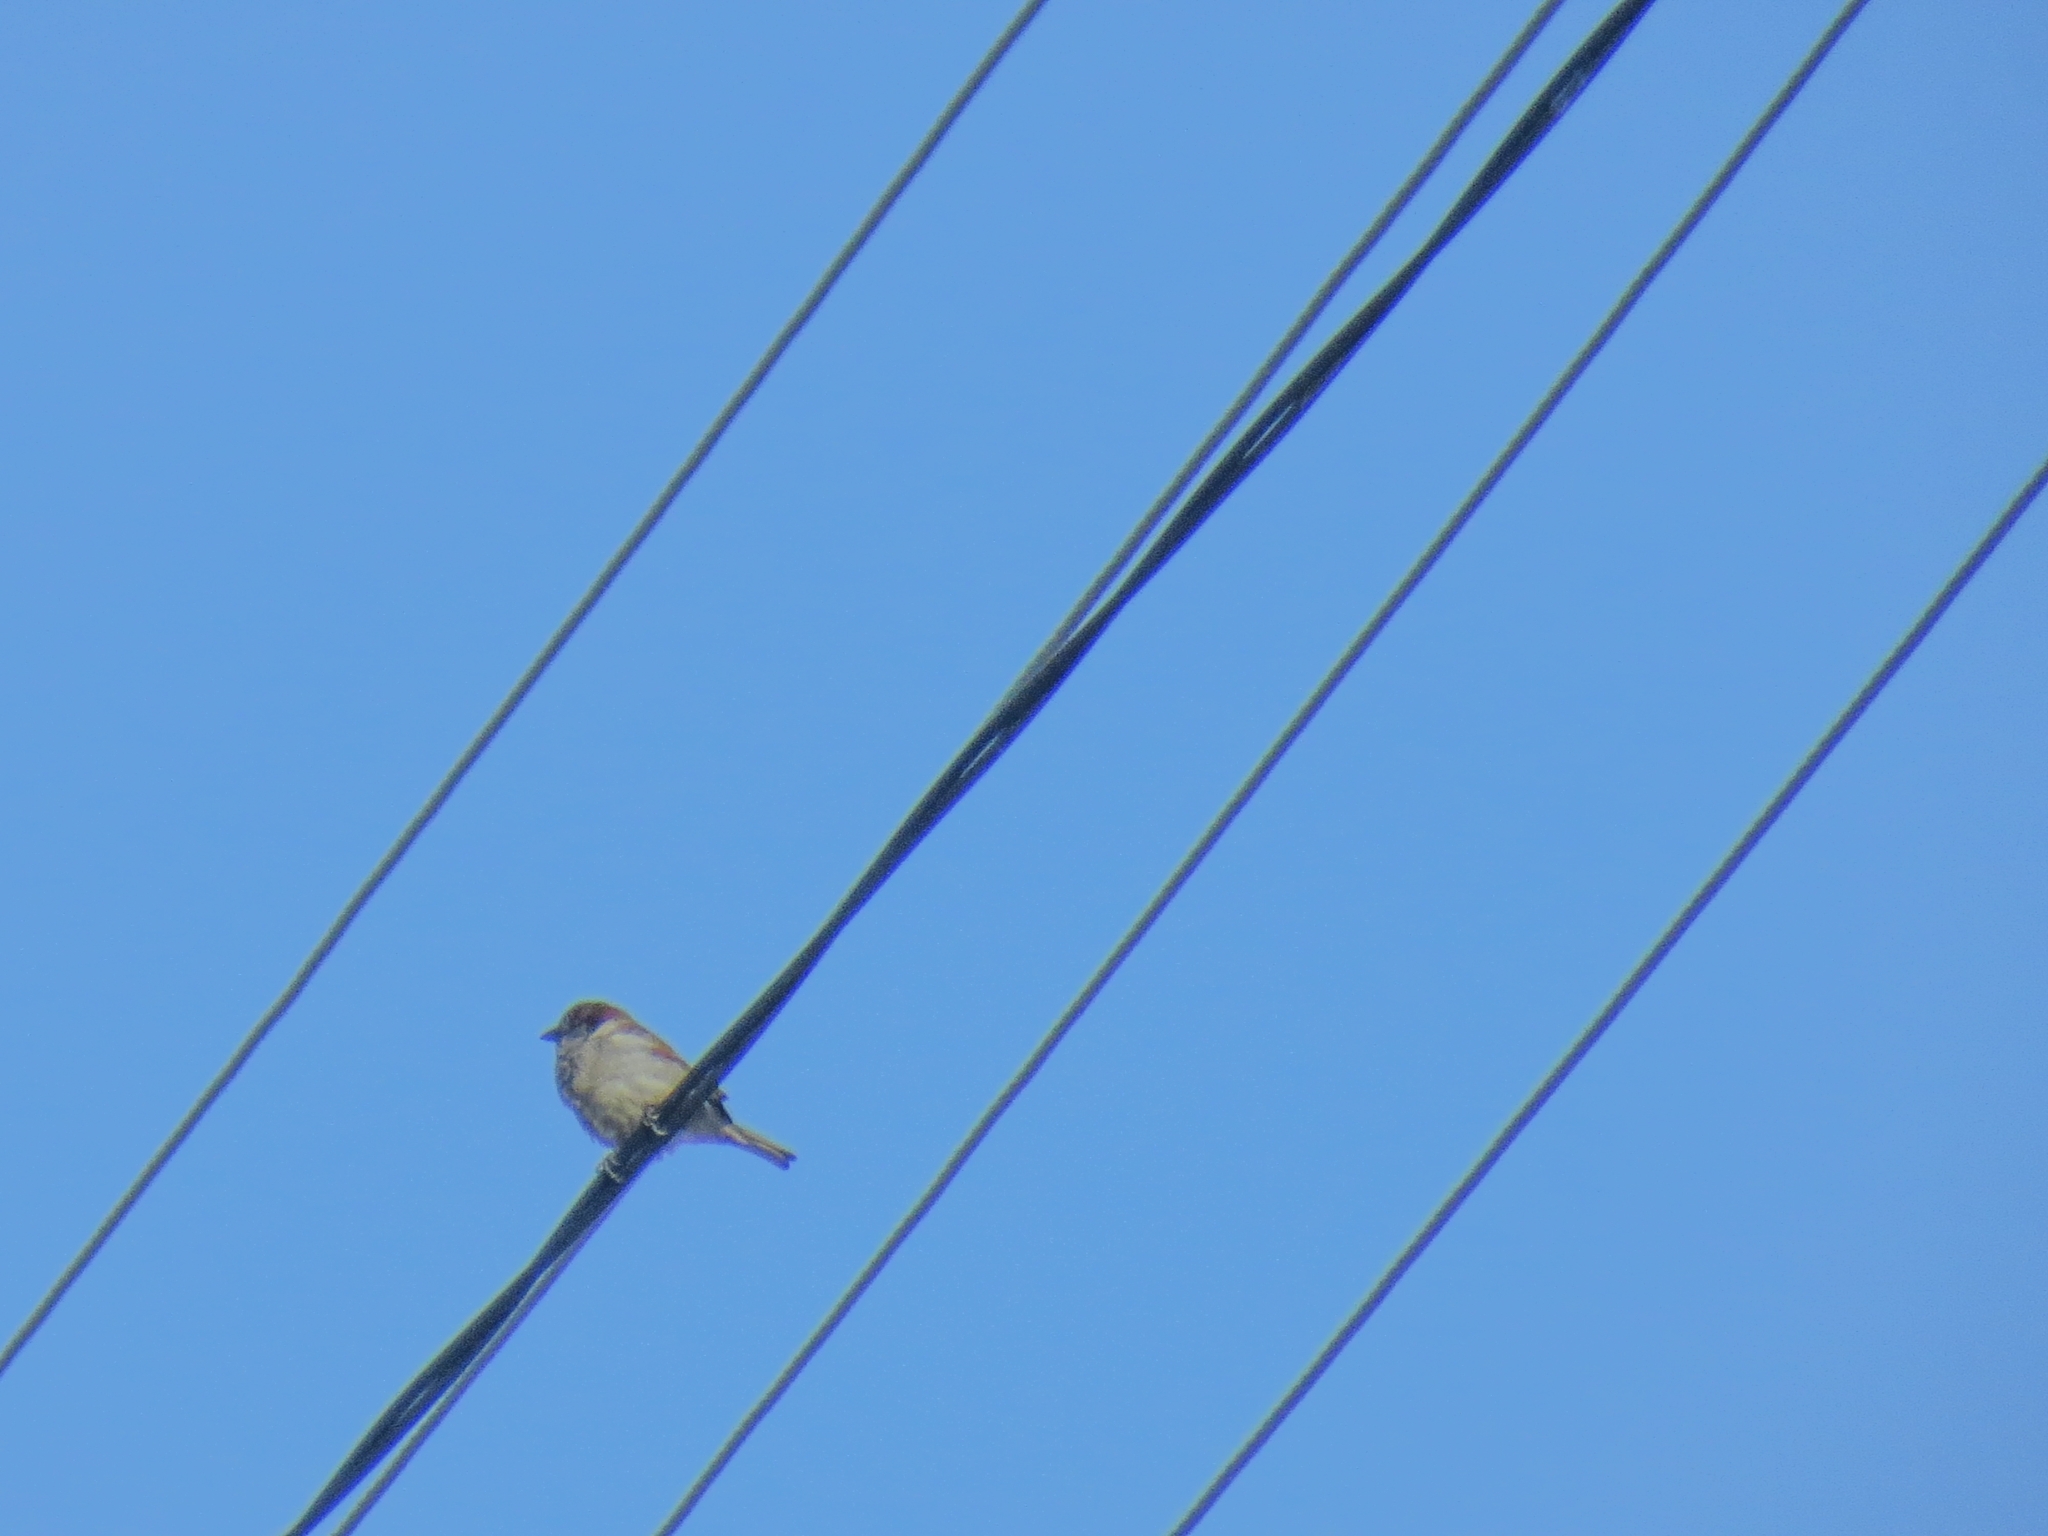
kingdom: Animalia
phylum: Chordata
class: Aves
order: Passeriformes
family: Passeridae
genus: Passer
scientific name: Passer domesticus
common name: House sparrow
